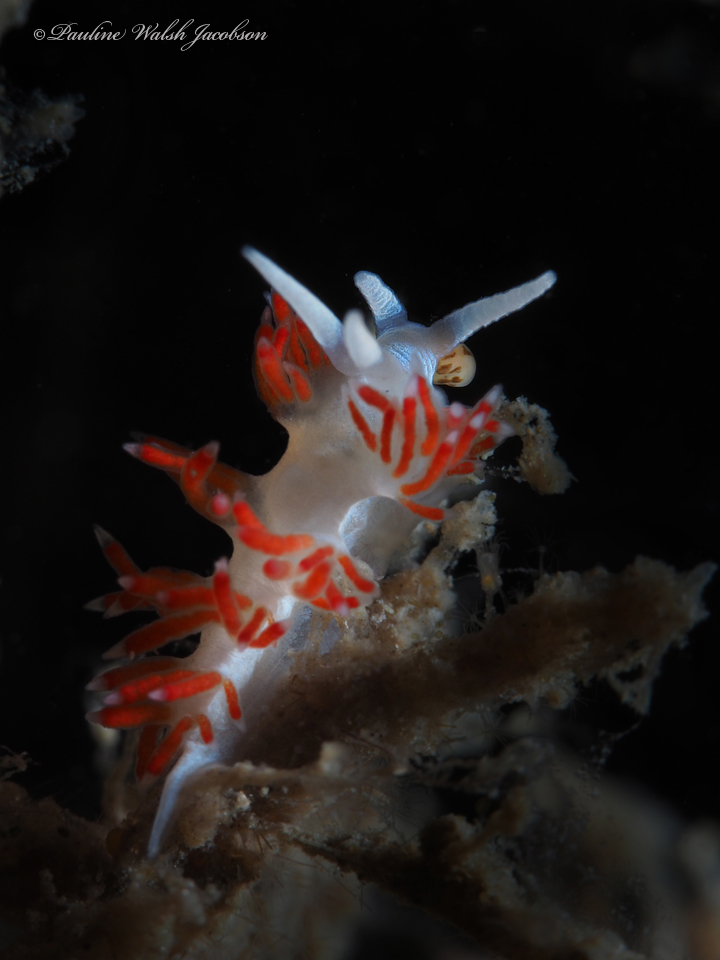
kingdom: Animalia
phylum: Mollusca
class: Gastropoda
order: Nudibranchia
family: Flabellinidae
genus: Flabellina
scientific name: Flabellina dushia
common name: Dushia flabellina
